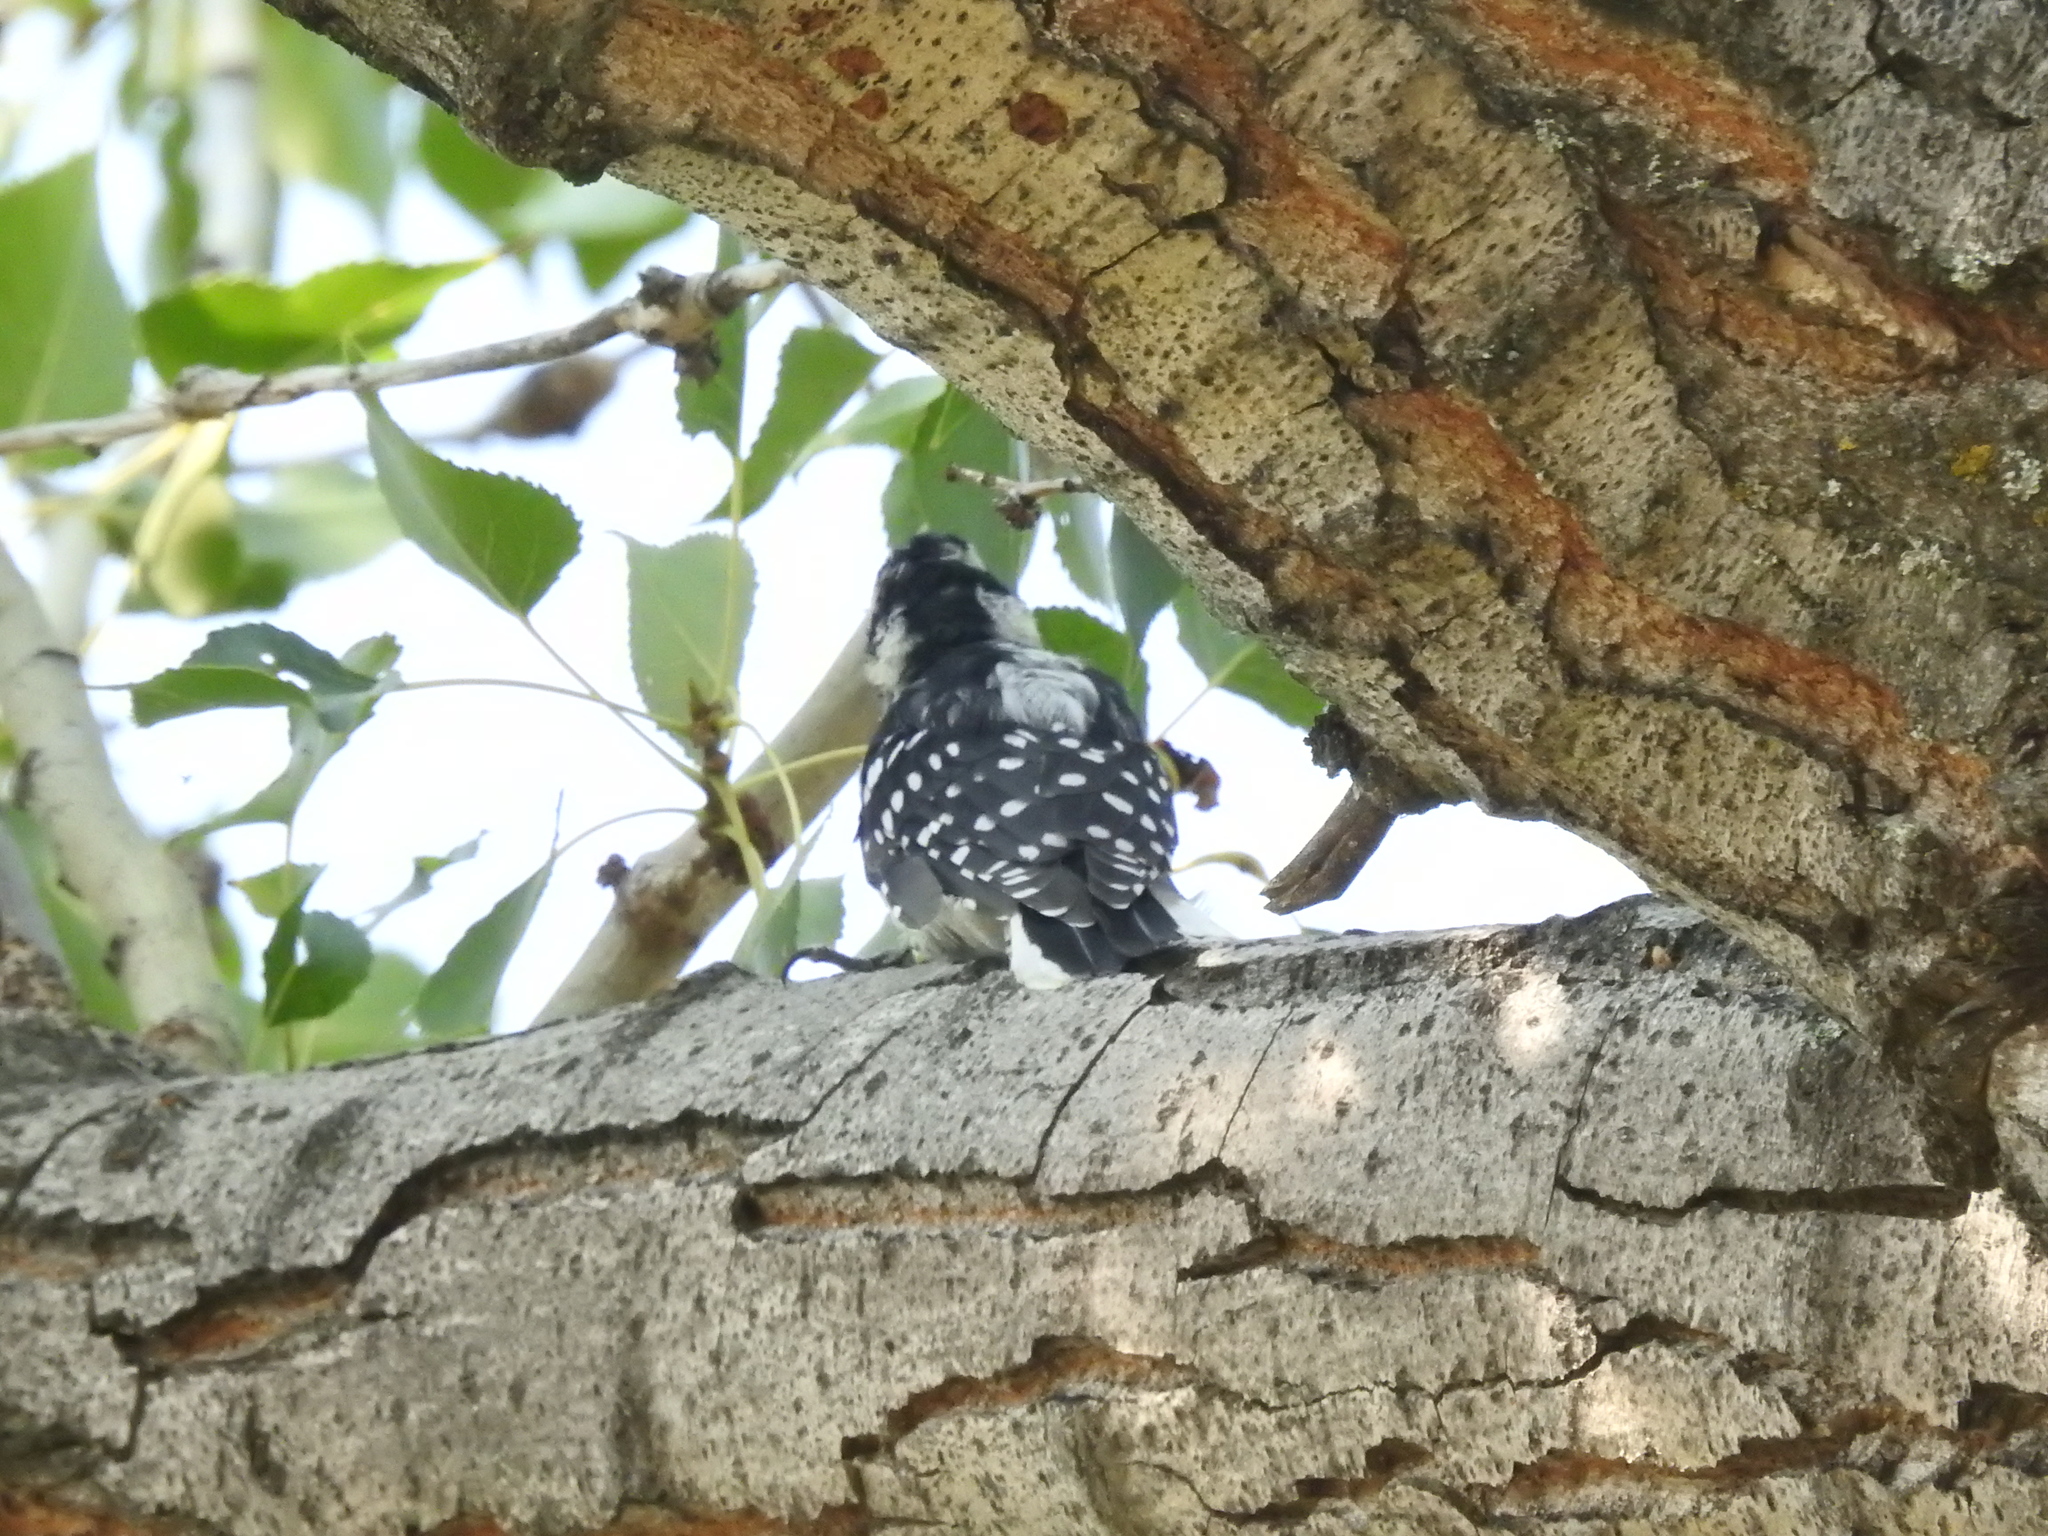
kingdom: Animalia
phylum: Chordata
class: Aves
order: Piciformes
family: Picidae
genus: Leuconotopicus
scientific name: Leuconotopicus villosus
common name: Hairy woodpecker
